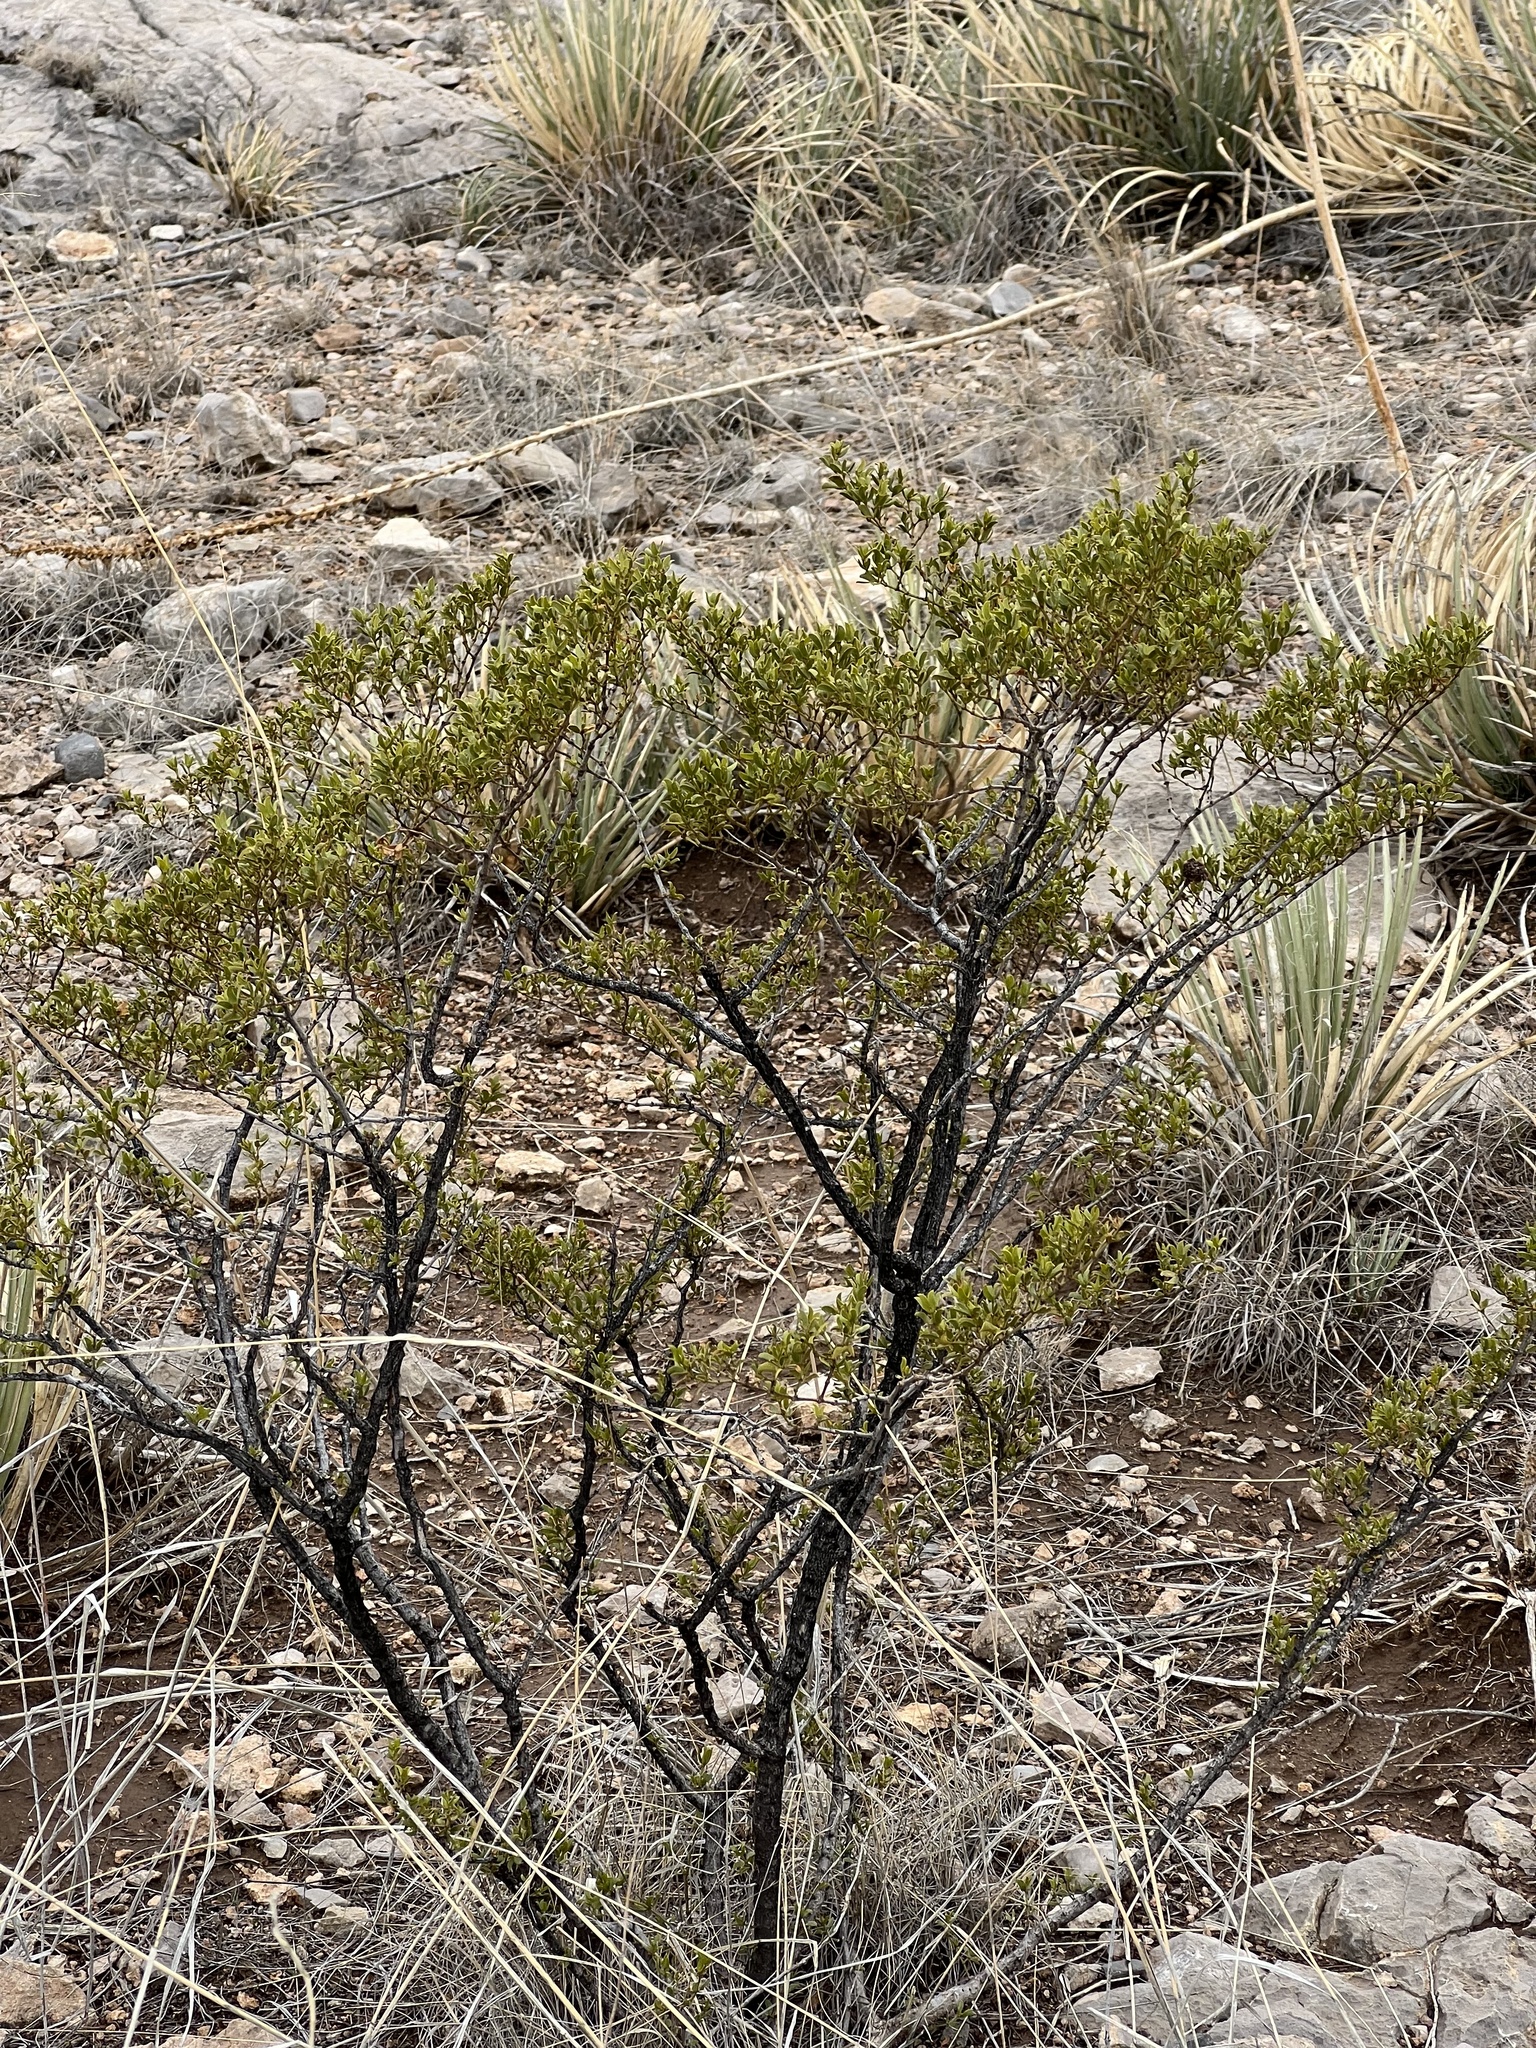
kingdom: Plantae
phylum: Tracheophyta
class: Magnoliopsida
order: Zygophyllales
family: Zygophyllaceae
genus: Larrea
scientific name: Larrea tridentata
